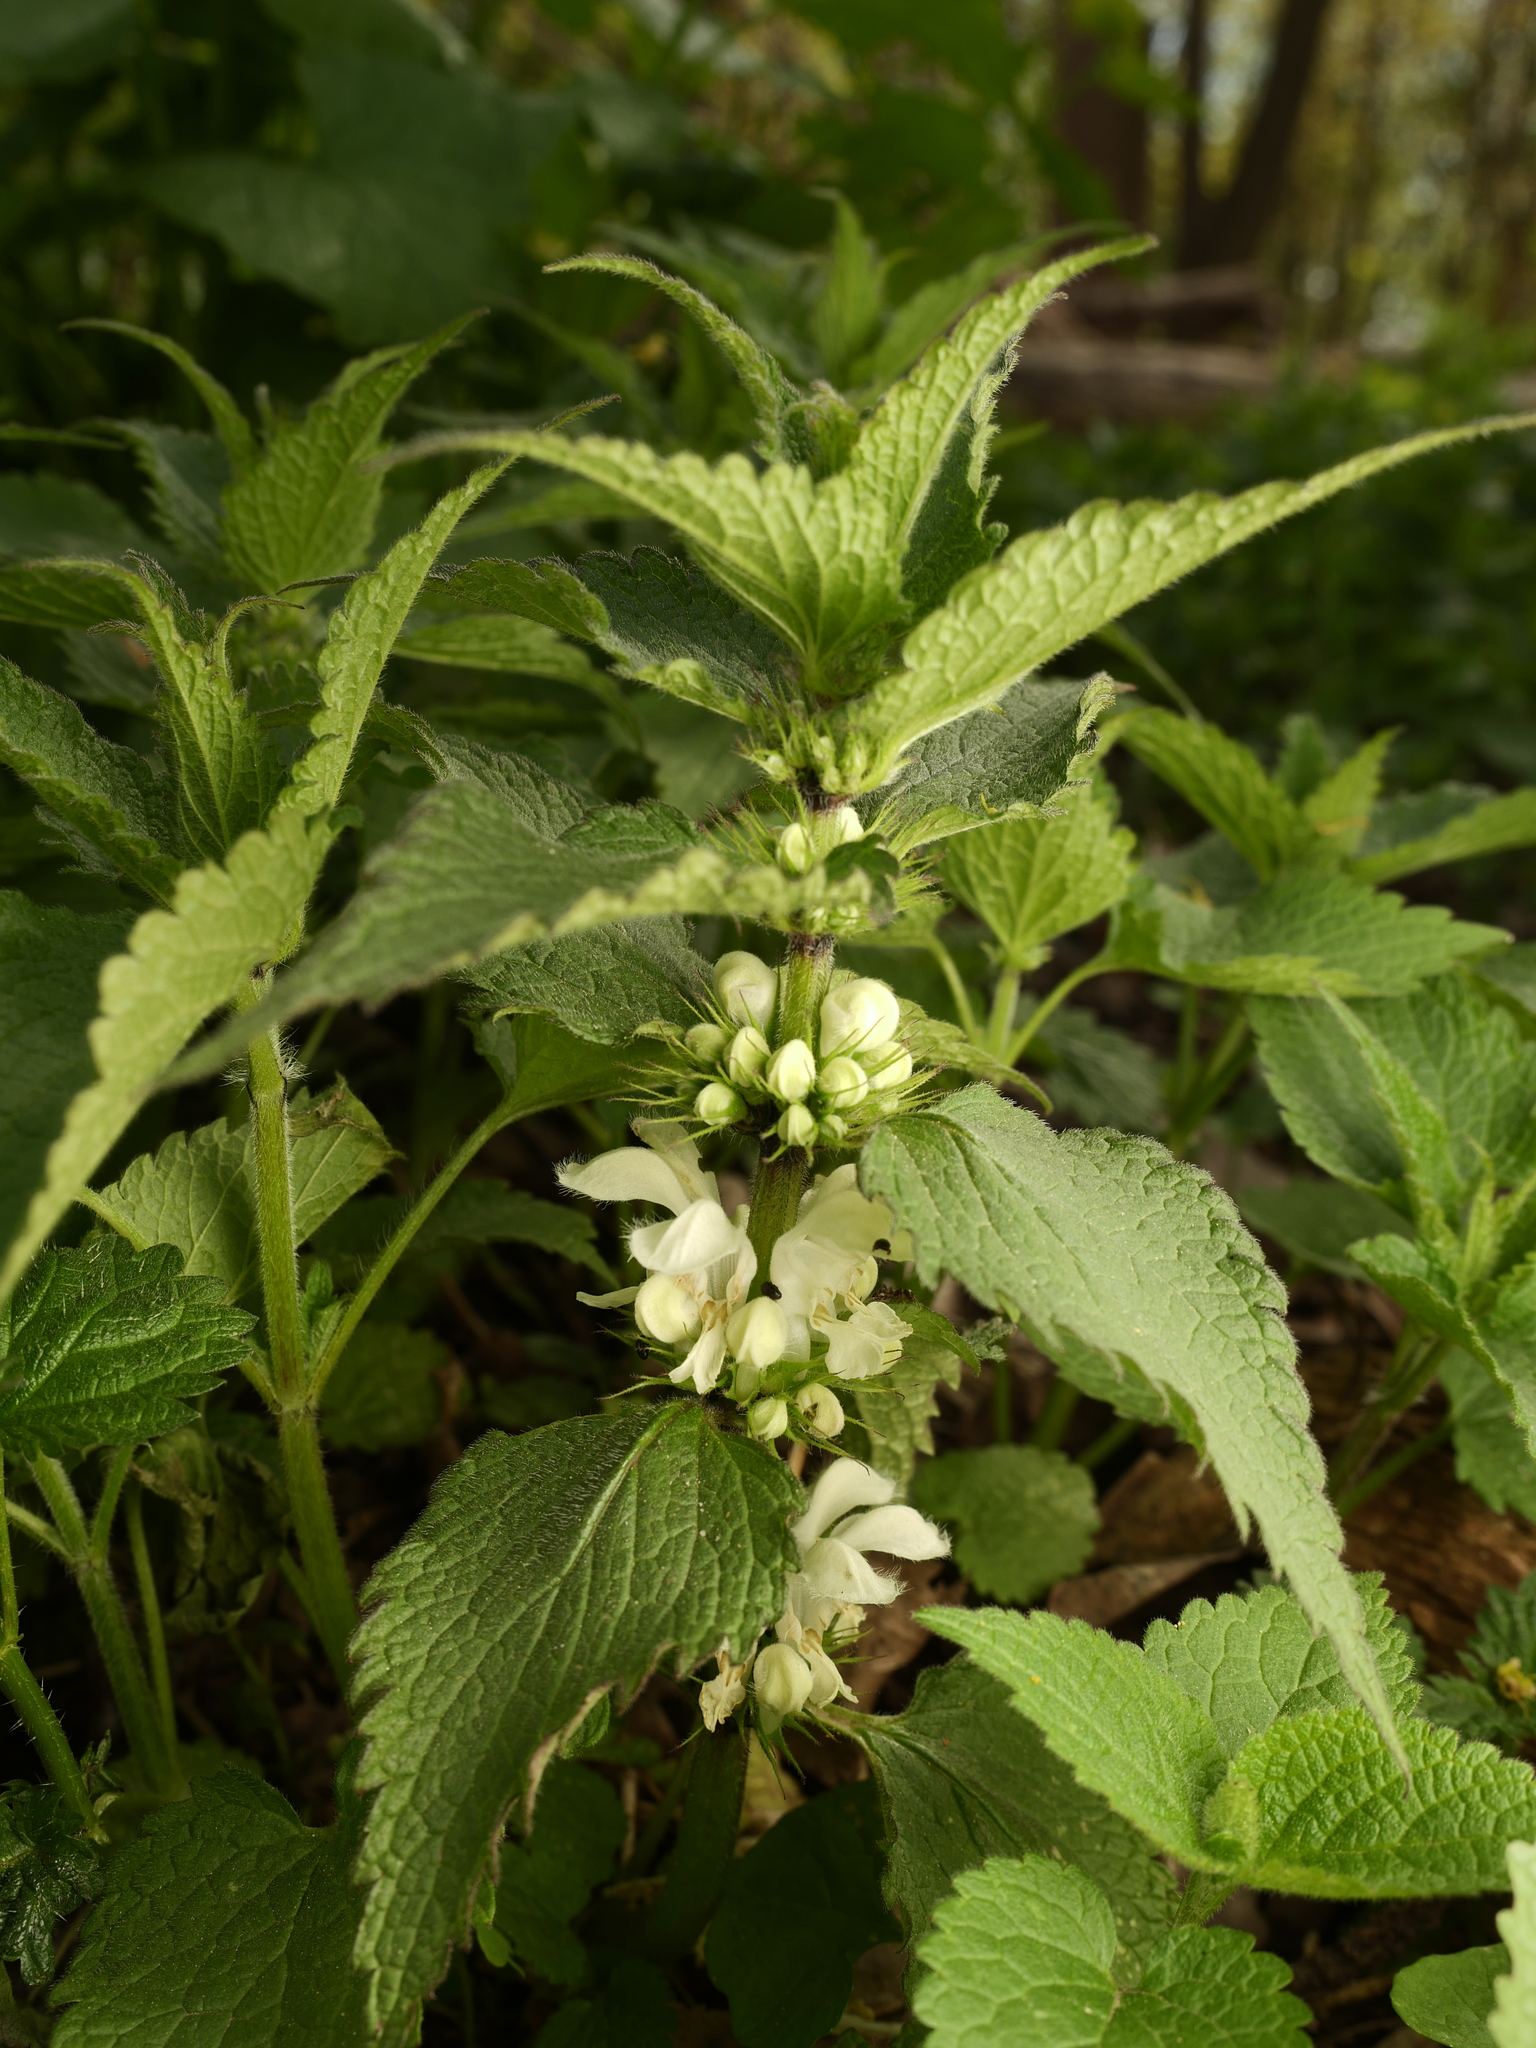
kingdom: Plantae
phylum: Tracheophyta
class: Magnoliopsida
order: Lamiales
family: Lamiaceae
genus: Lamium
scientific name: Lamium album
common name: White dead-nettle
